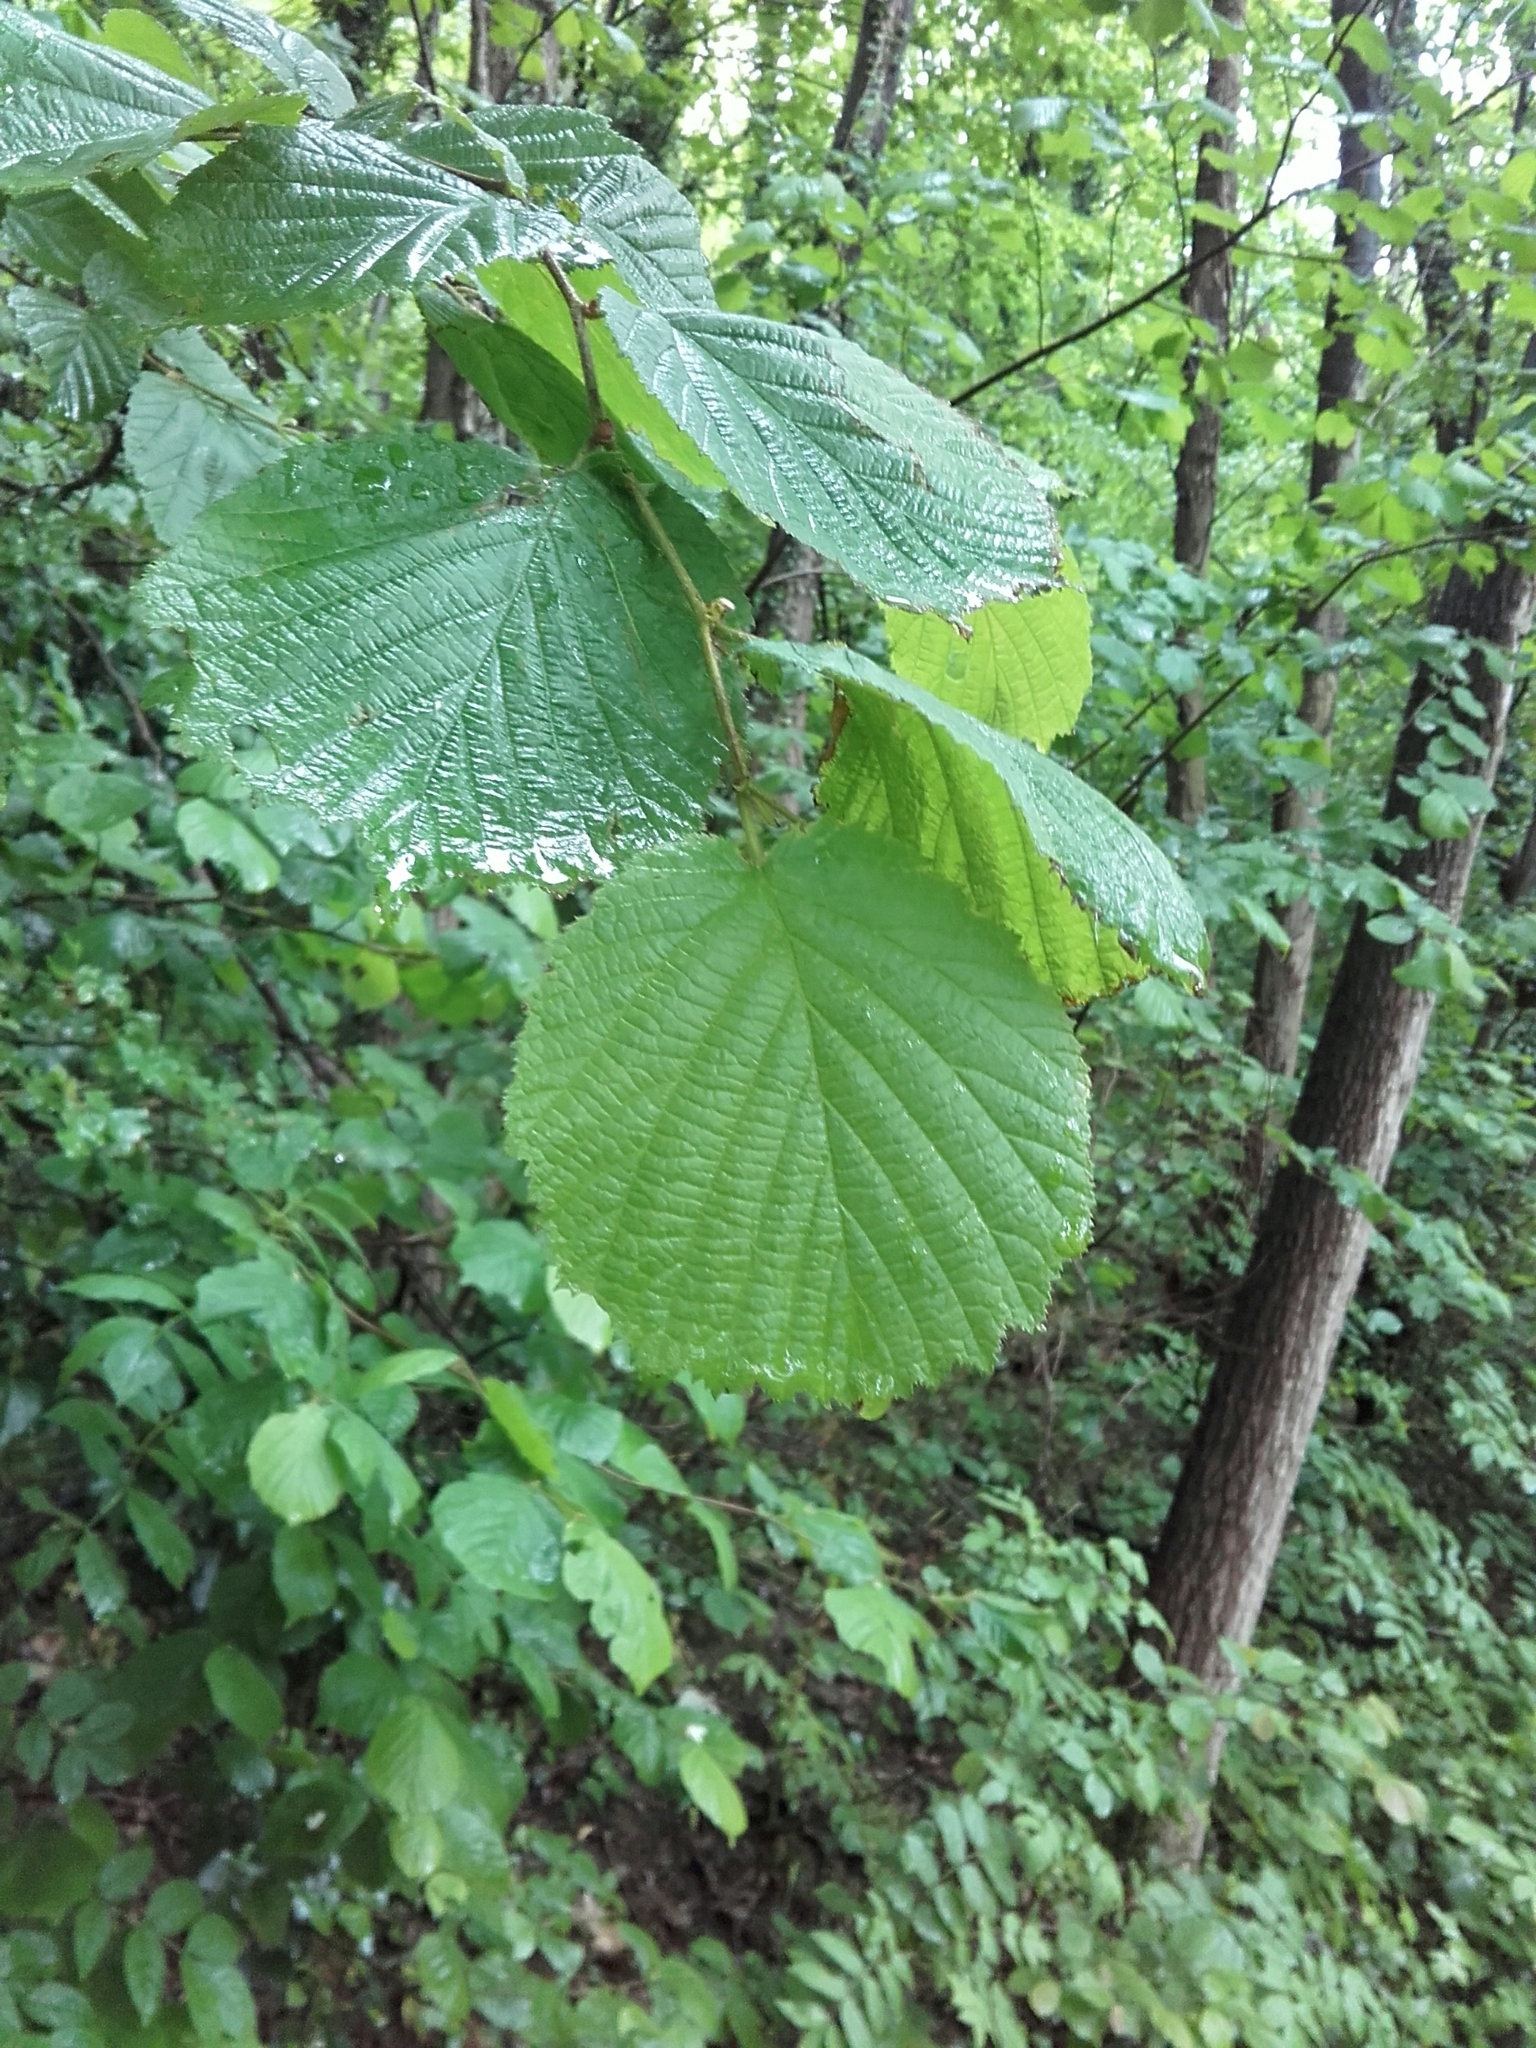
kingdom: Plantae
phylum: Tracheophyta
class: Magnoliopsida
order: Fagales
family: Betulaceae
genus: Corylus
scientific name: Corylus avellana
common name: European hazel
